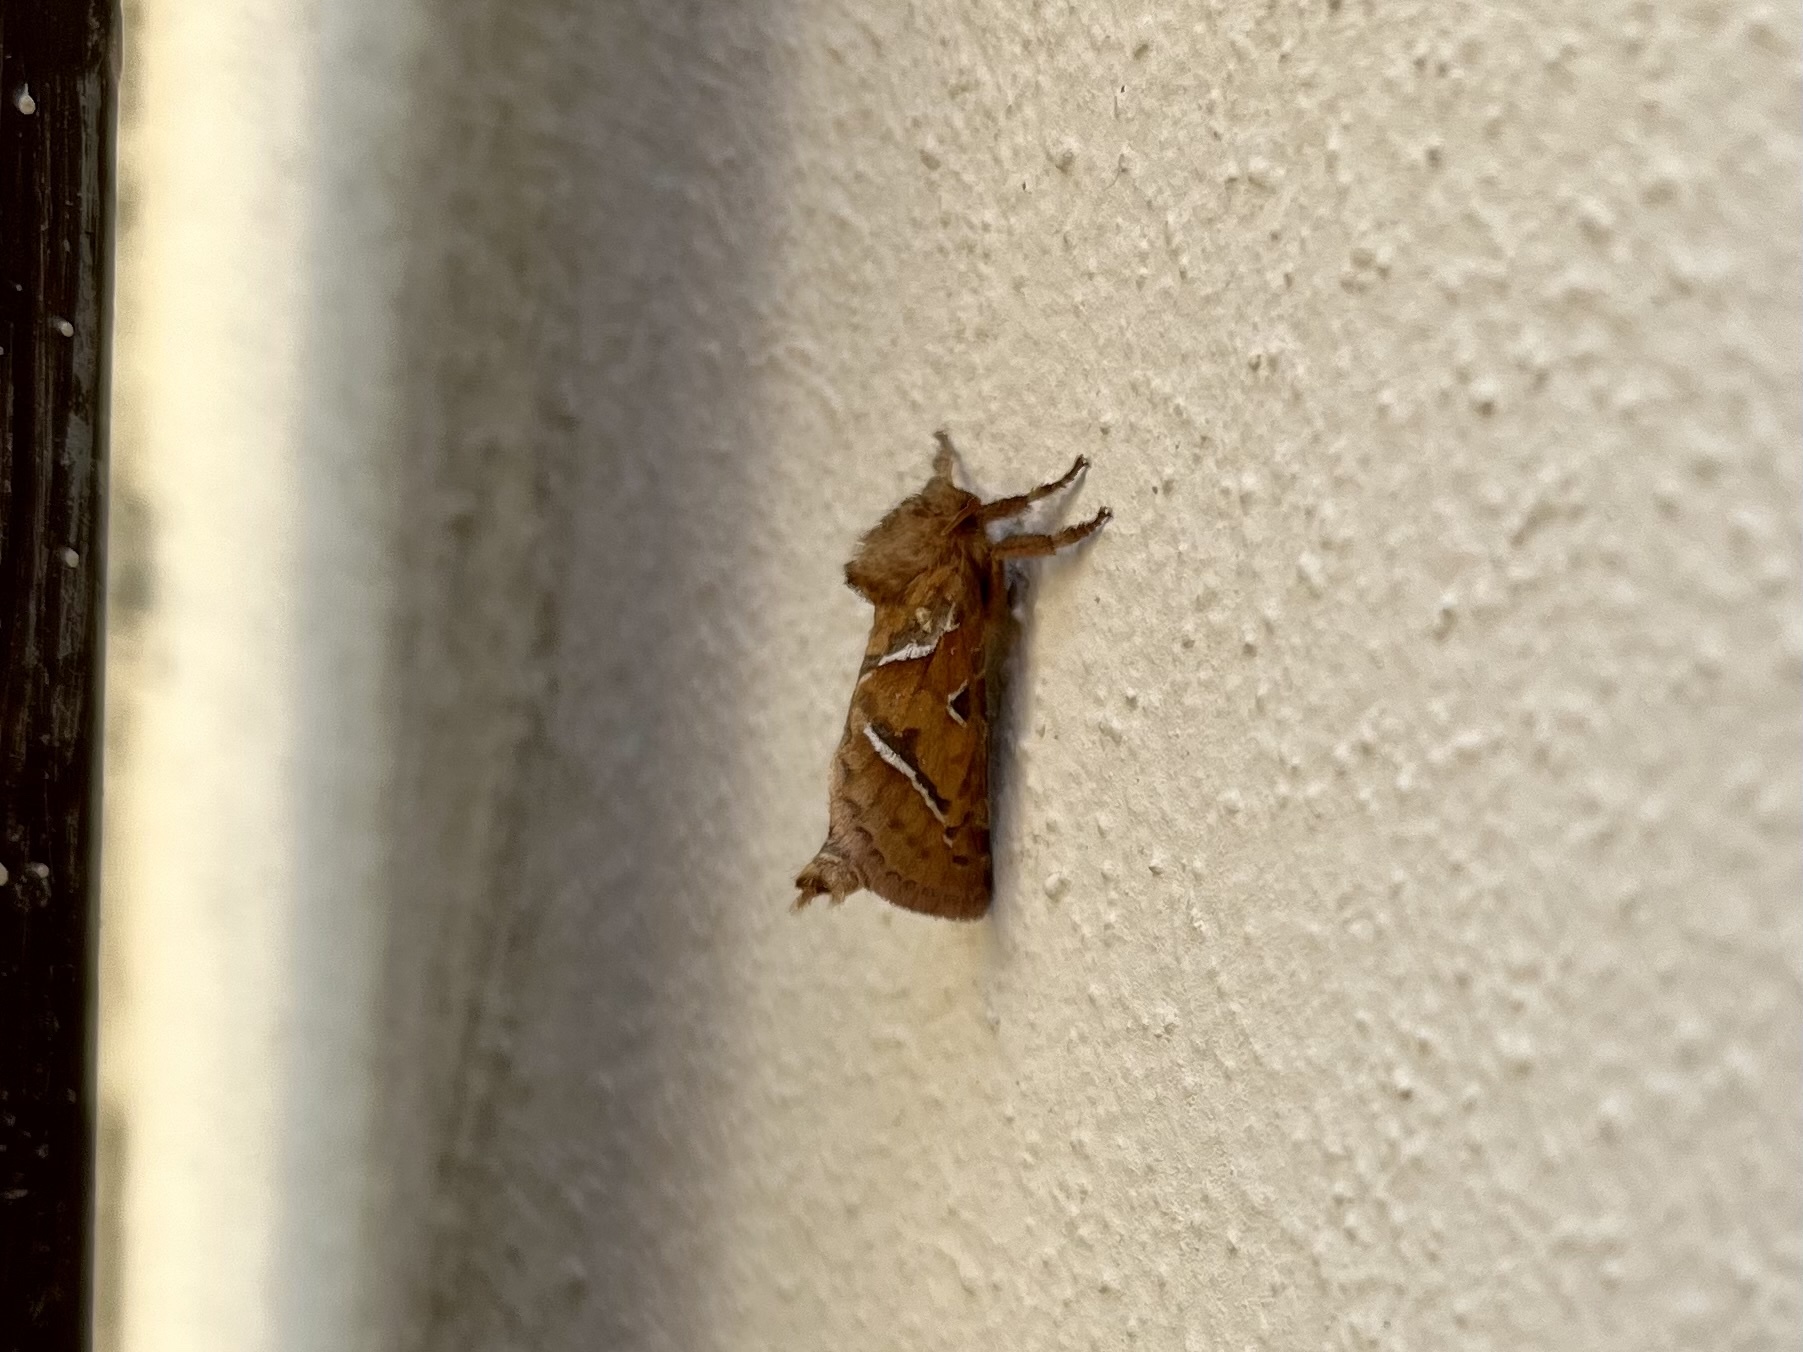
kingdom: Animalia
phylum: Arthropoda
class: Insecta
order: Lepidoptera
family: Hepialidae
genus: Triodia
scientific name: Triodia sylvina
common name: Orange swift
